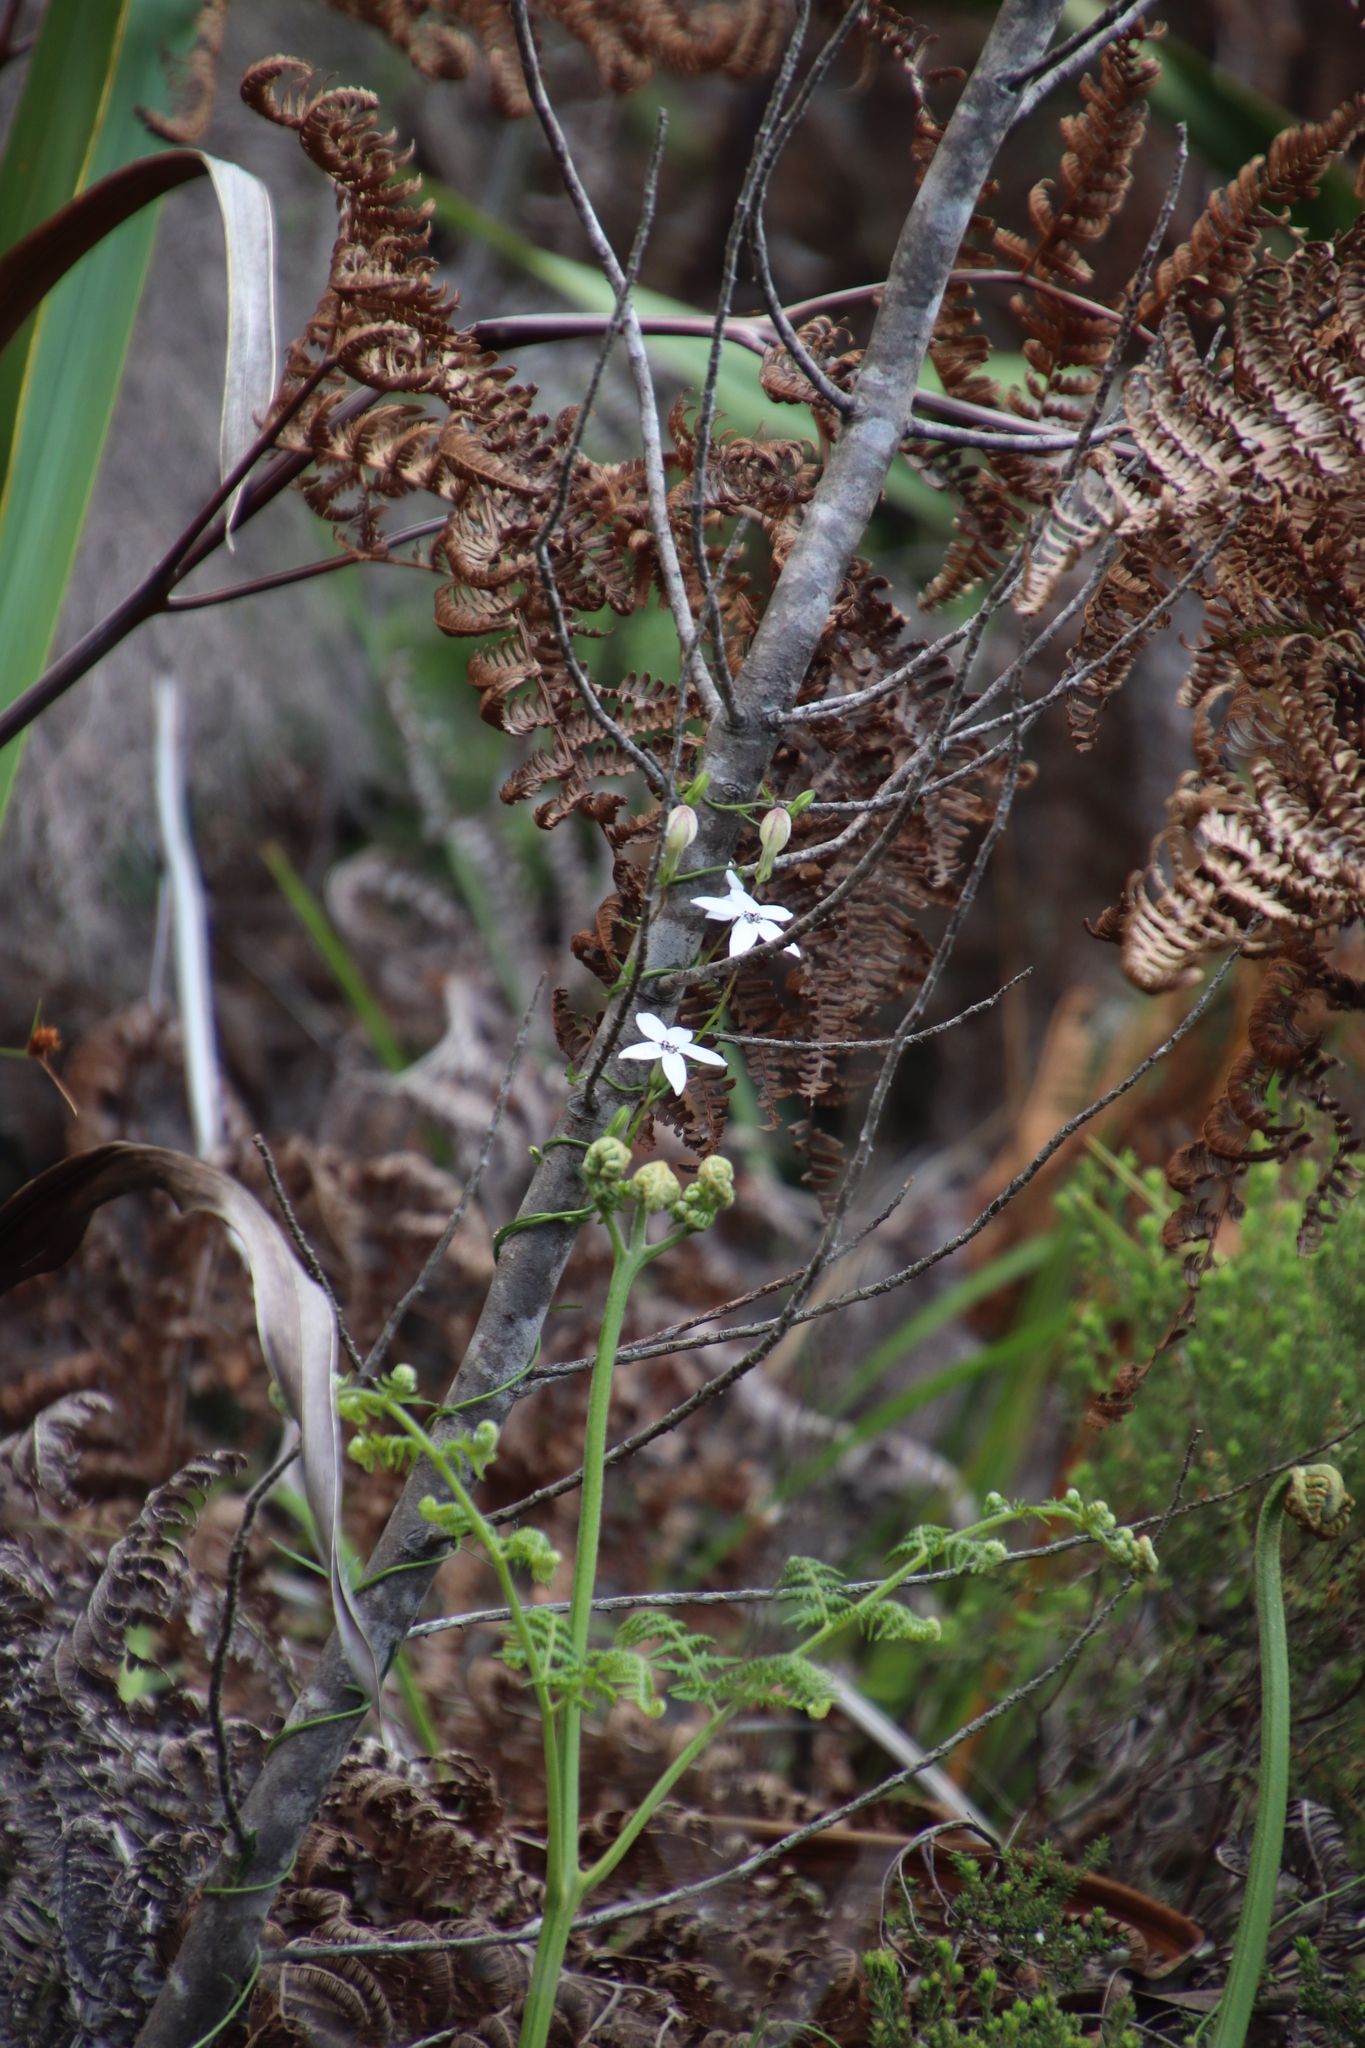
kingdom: Plantae
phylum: Tracheophyta
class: Magnoliopsida
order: Asterales
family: Campanulaceae
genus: Cyphia
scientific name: Cyphia volubilis
